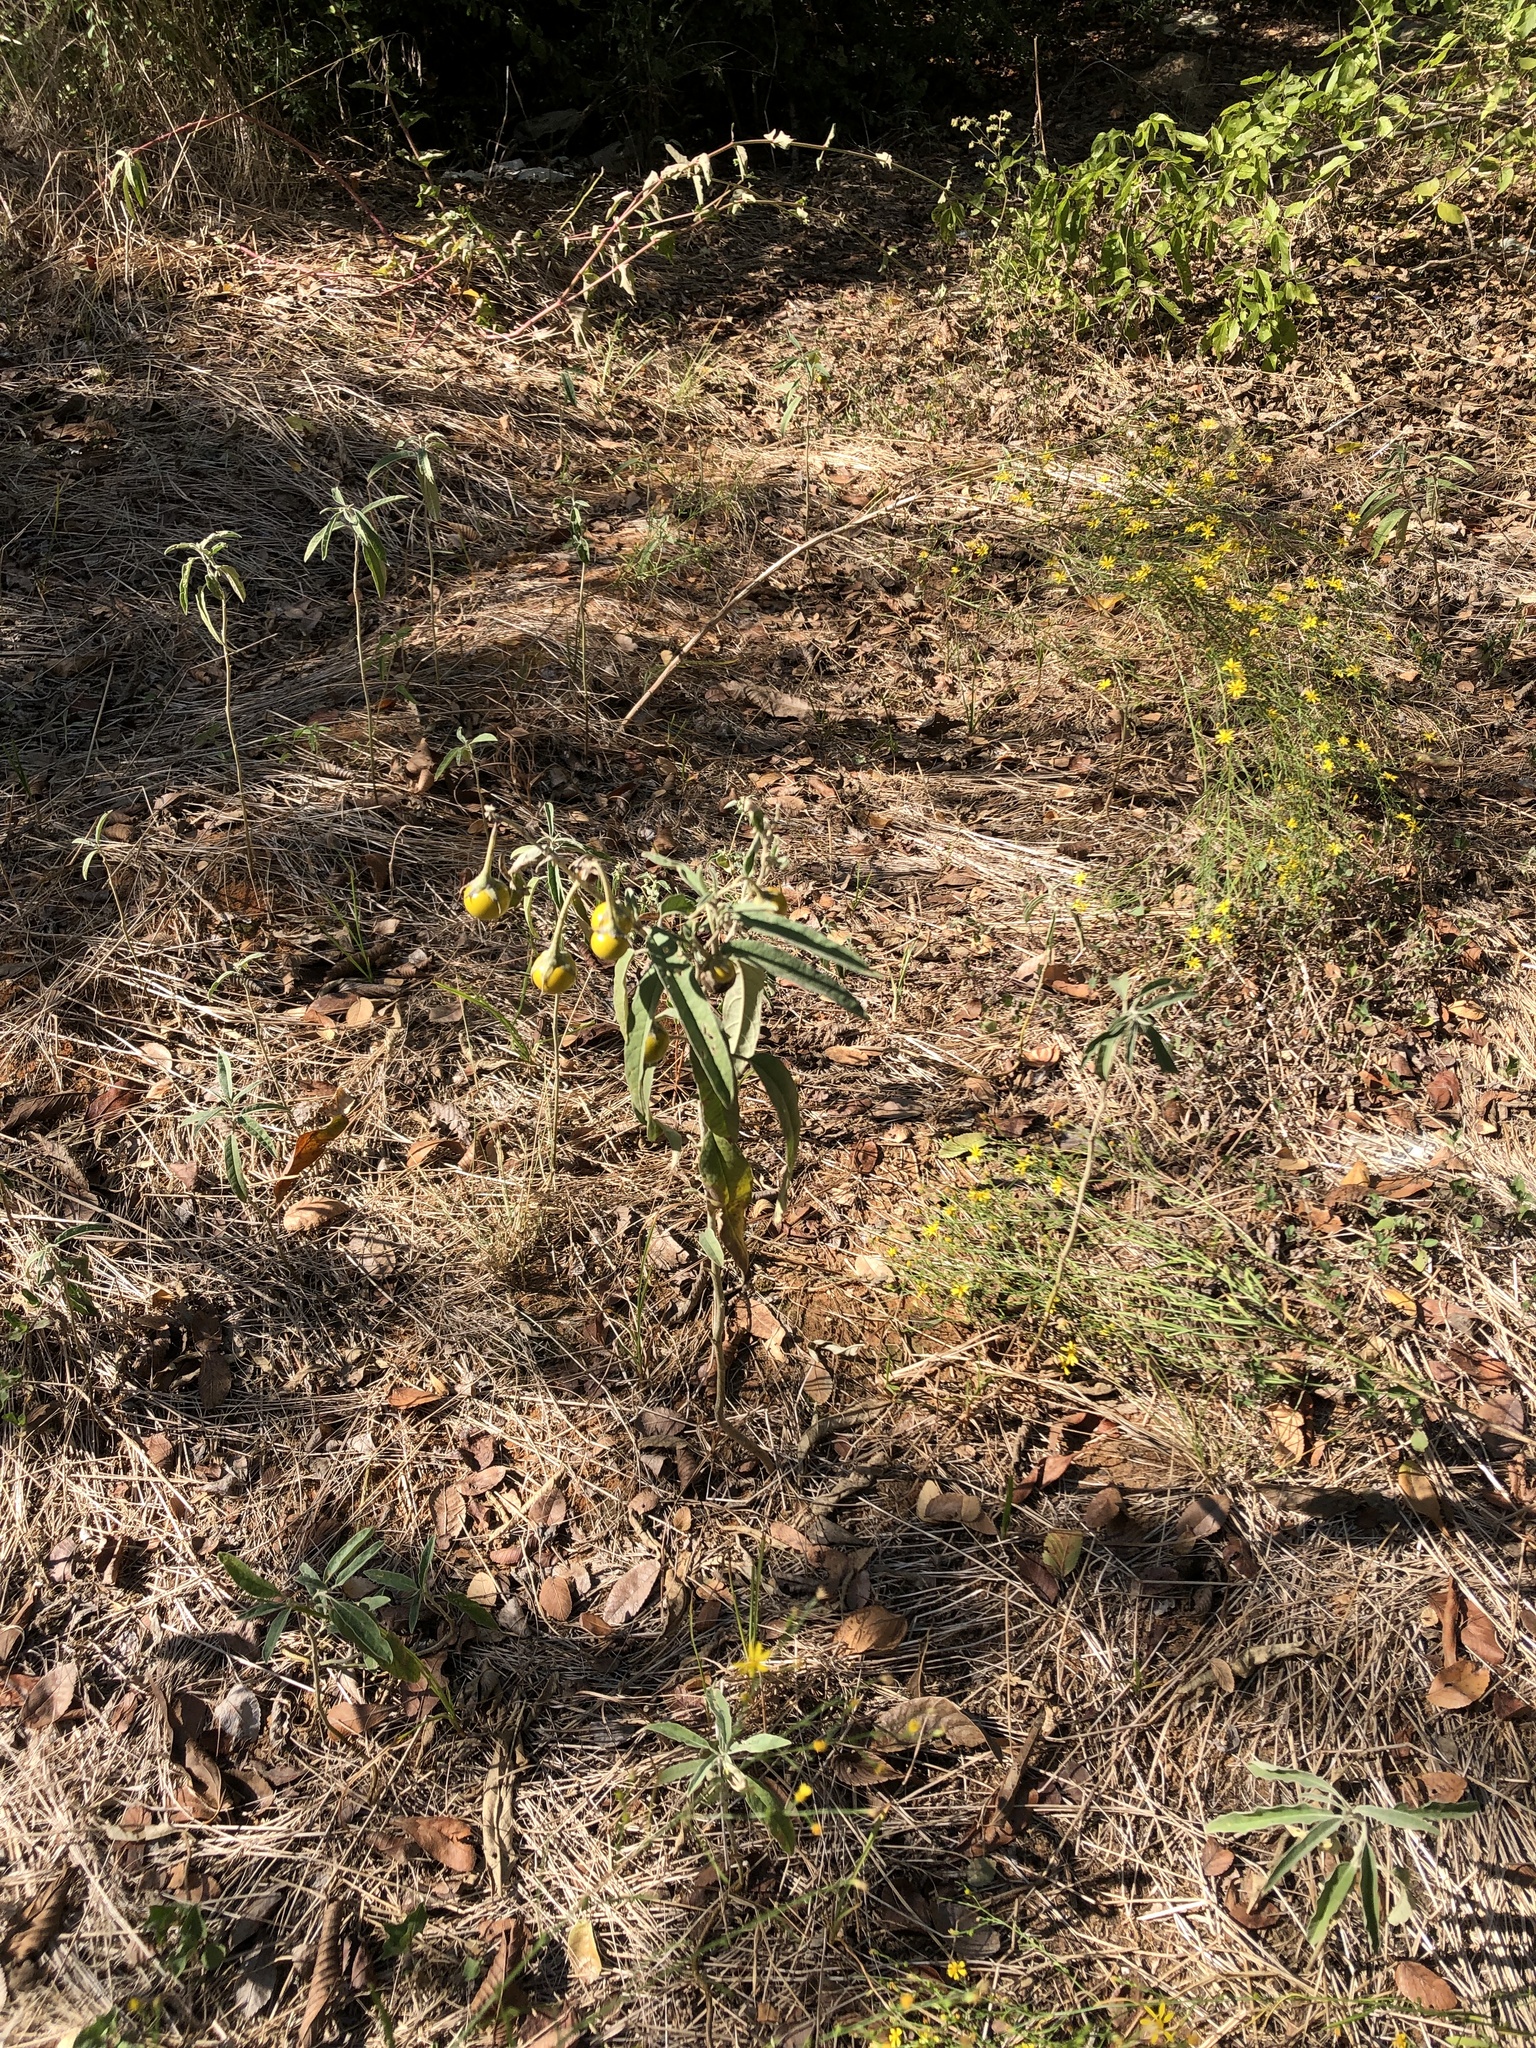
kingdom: Plantae
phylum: Tracheophyta
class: Magnoliopsida
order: Solanales
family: Solanaceae
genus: Solanum
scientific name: Solanum elaeagnifolium
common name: Silverleaf nightshade
